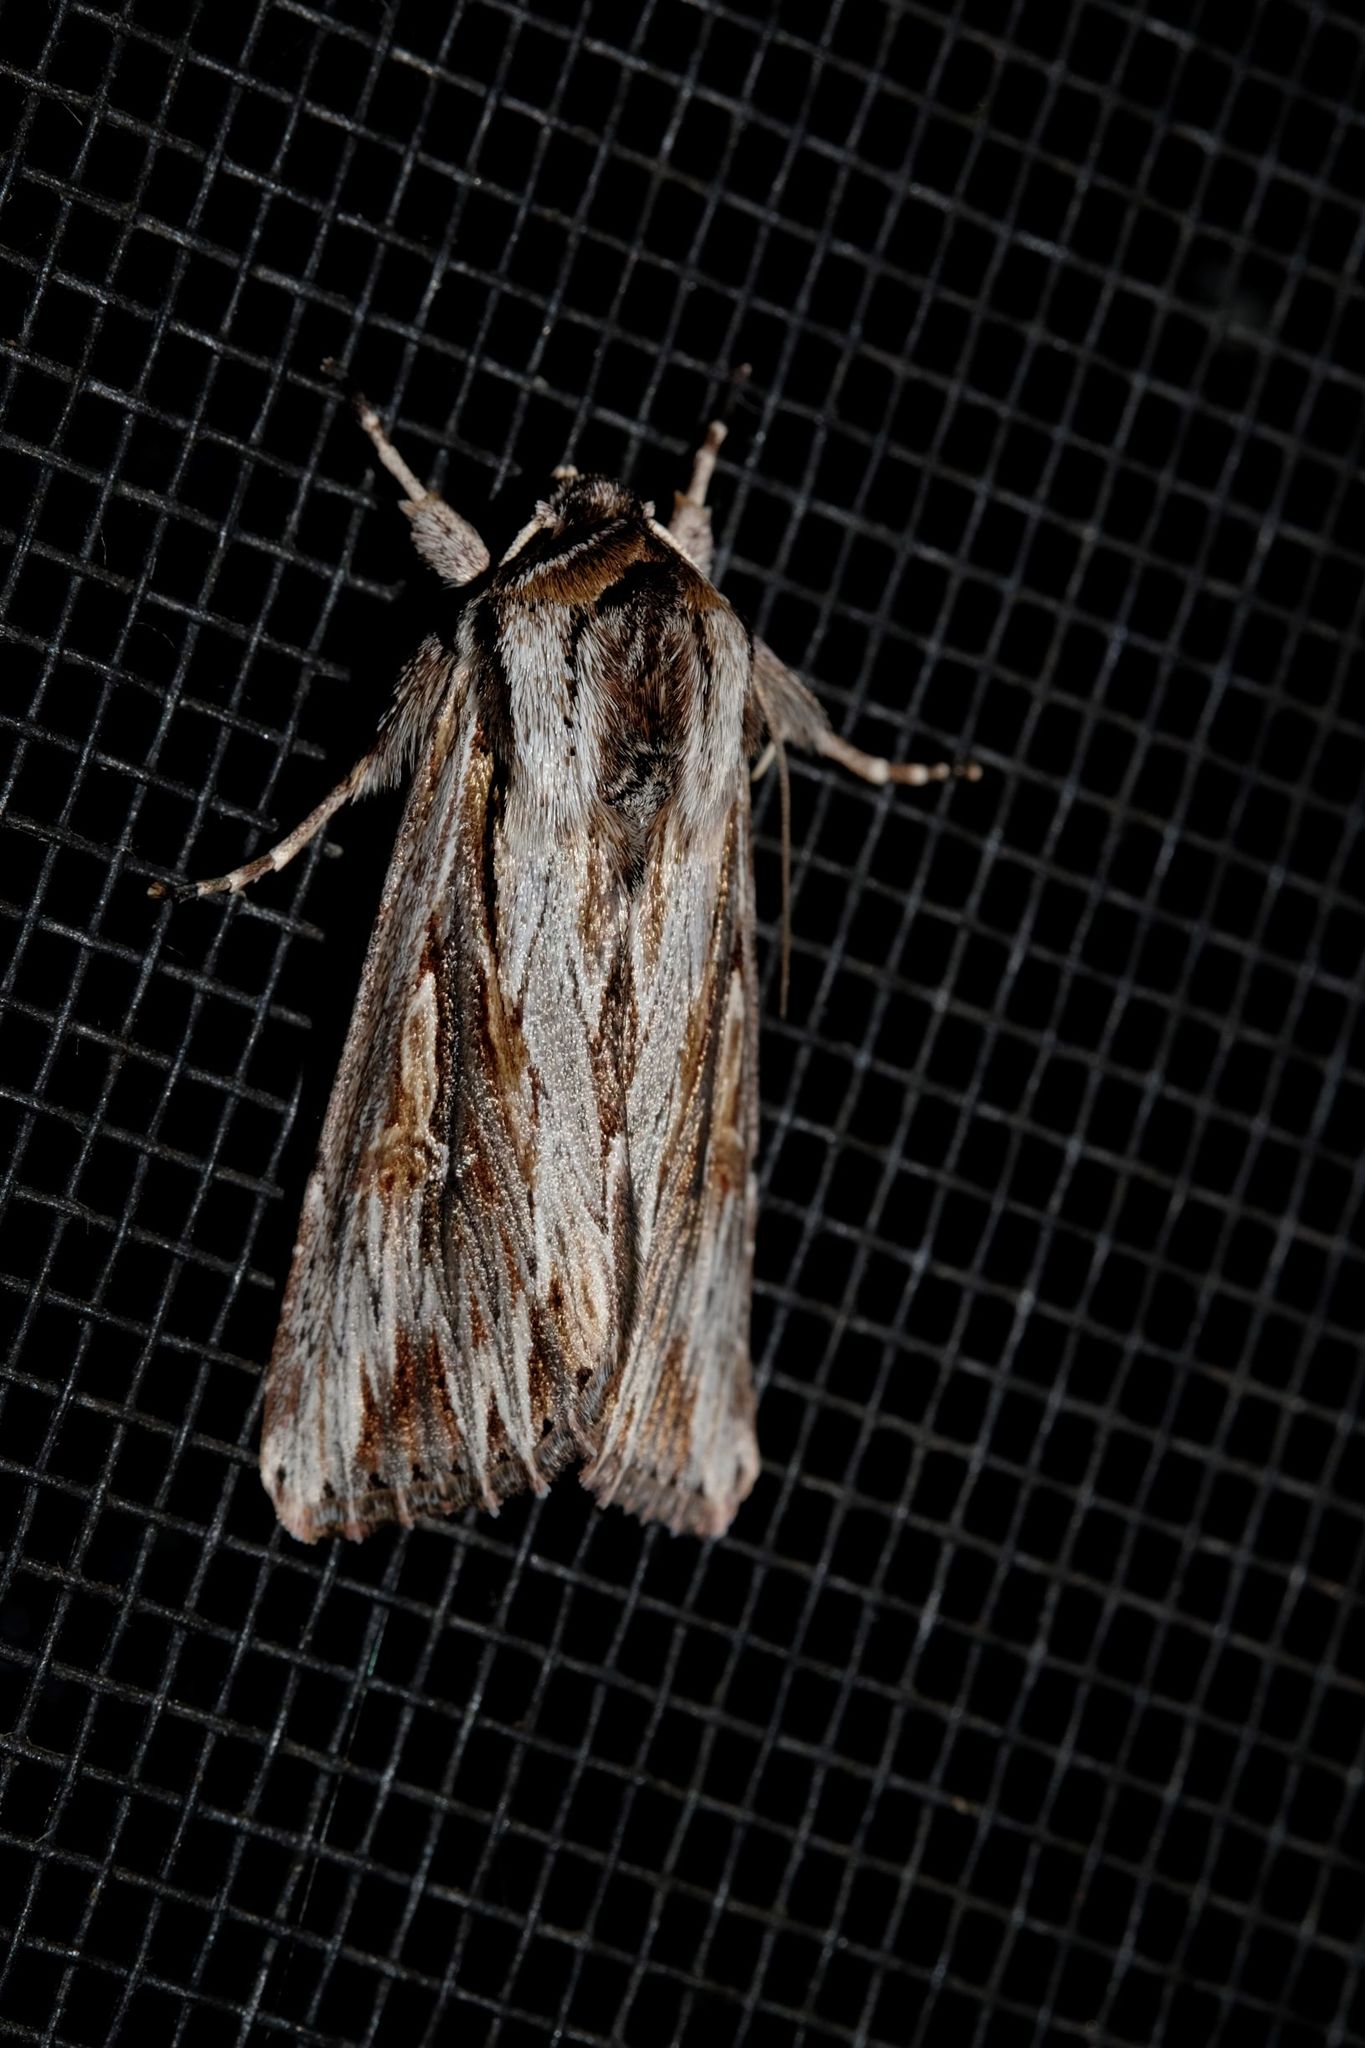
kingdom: Animalia
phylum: Arthropoda
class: Insecta
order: Lepidoptera
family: Noctuidae
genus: Persectania
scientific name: Persectania ewingii
